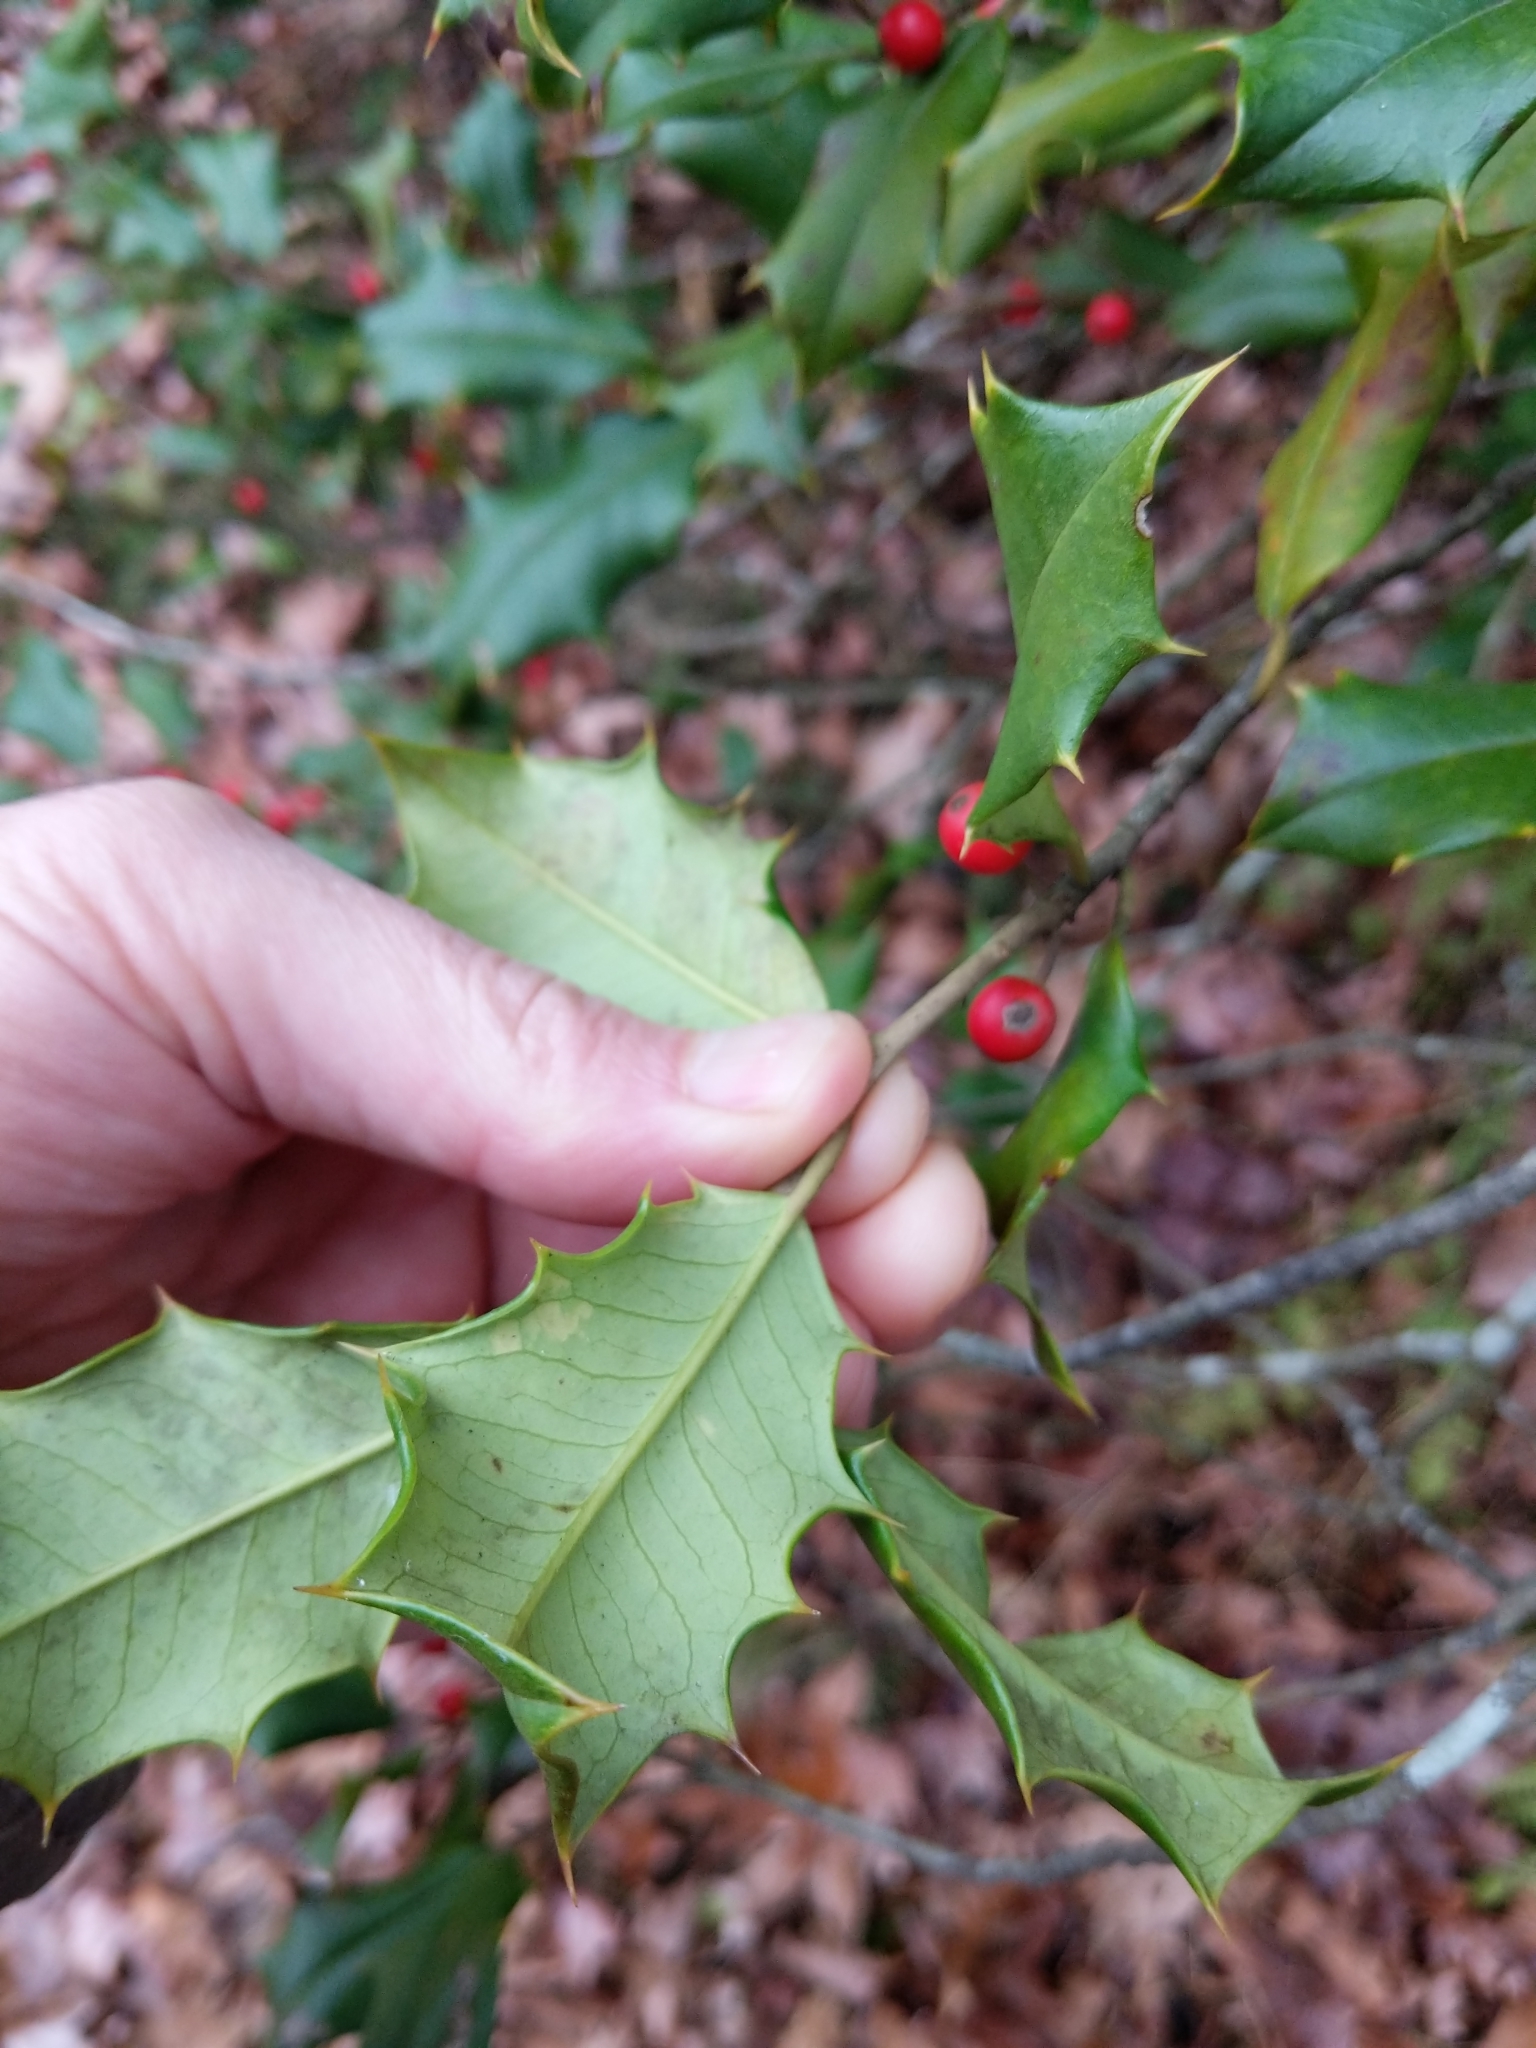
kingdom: Plantae
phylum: Tracheophyta
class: Magnoliopsida
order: Aquifoliales
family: Aquifoliaceae
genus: Ilex
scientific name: Ilex opaca
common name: American holly
